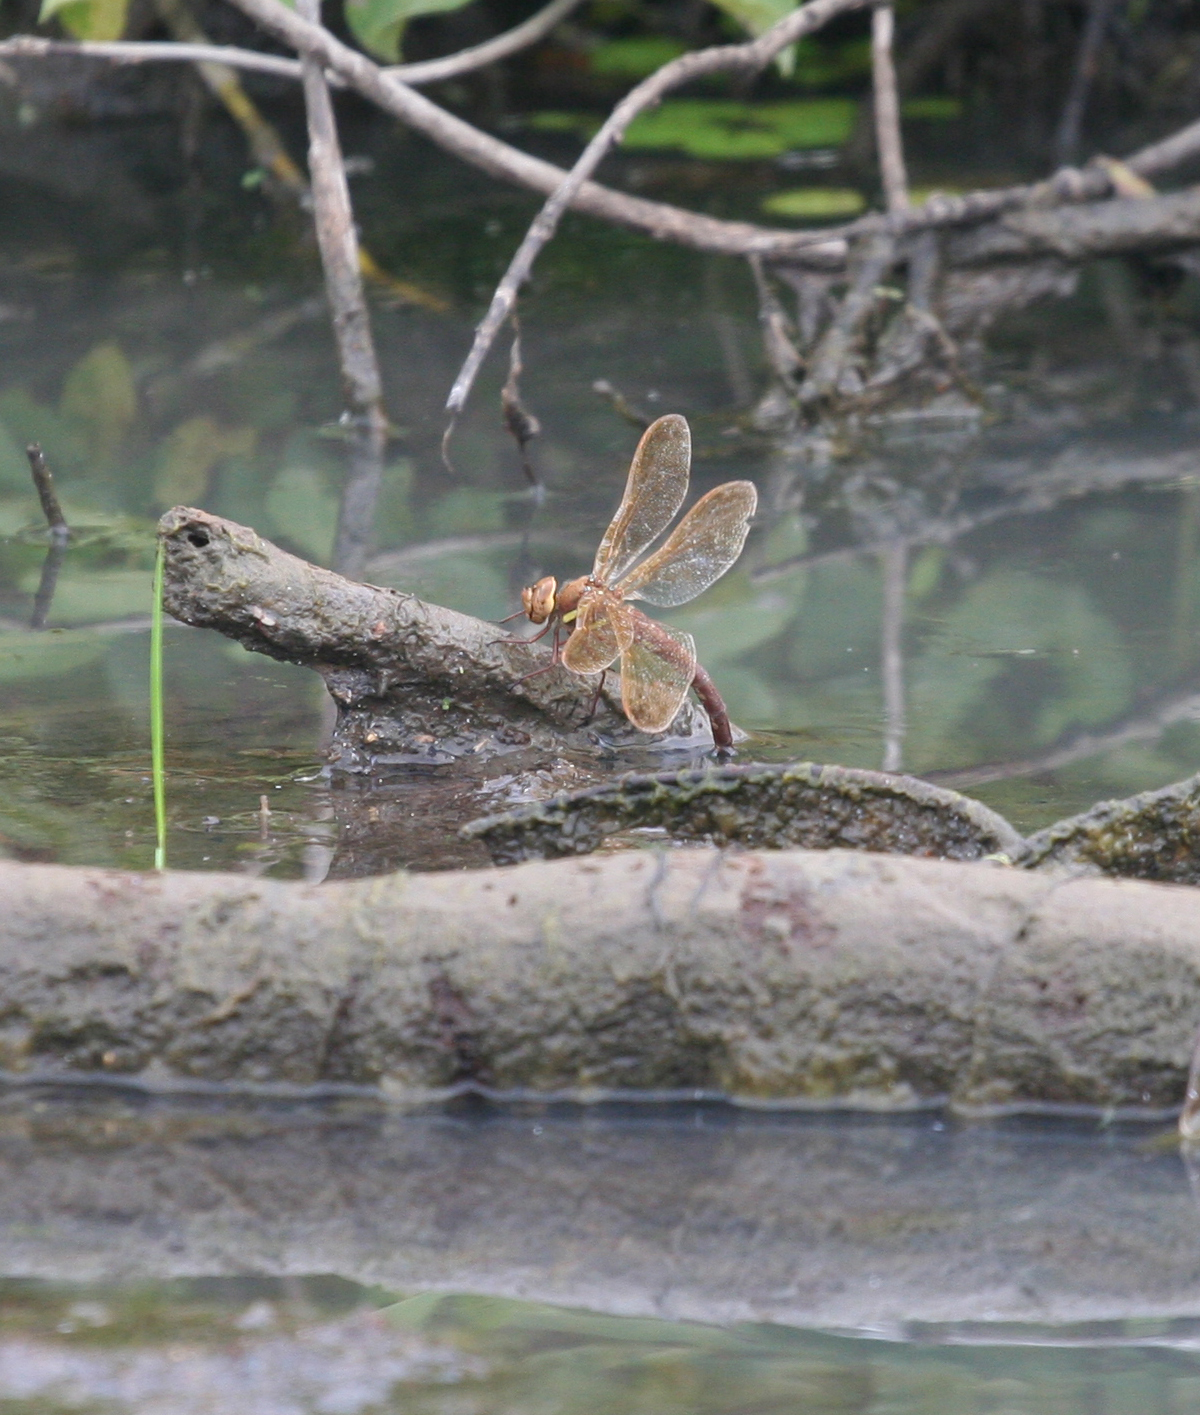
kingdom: Animalia
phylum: Arthropoda
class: Insecta
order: Odonata
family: Aeshnidae
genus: Aeshna
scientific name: Aeshna grandis
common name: Brown hawker
